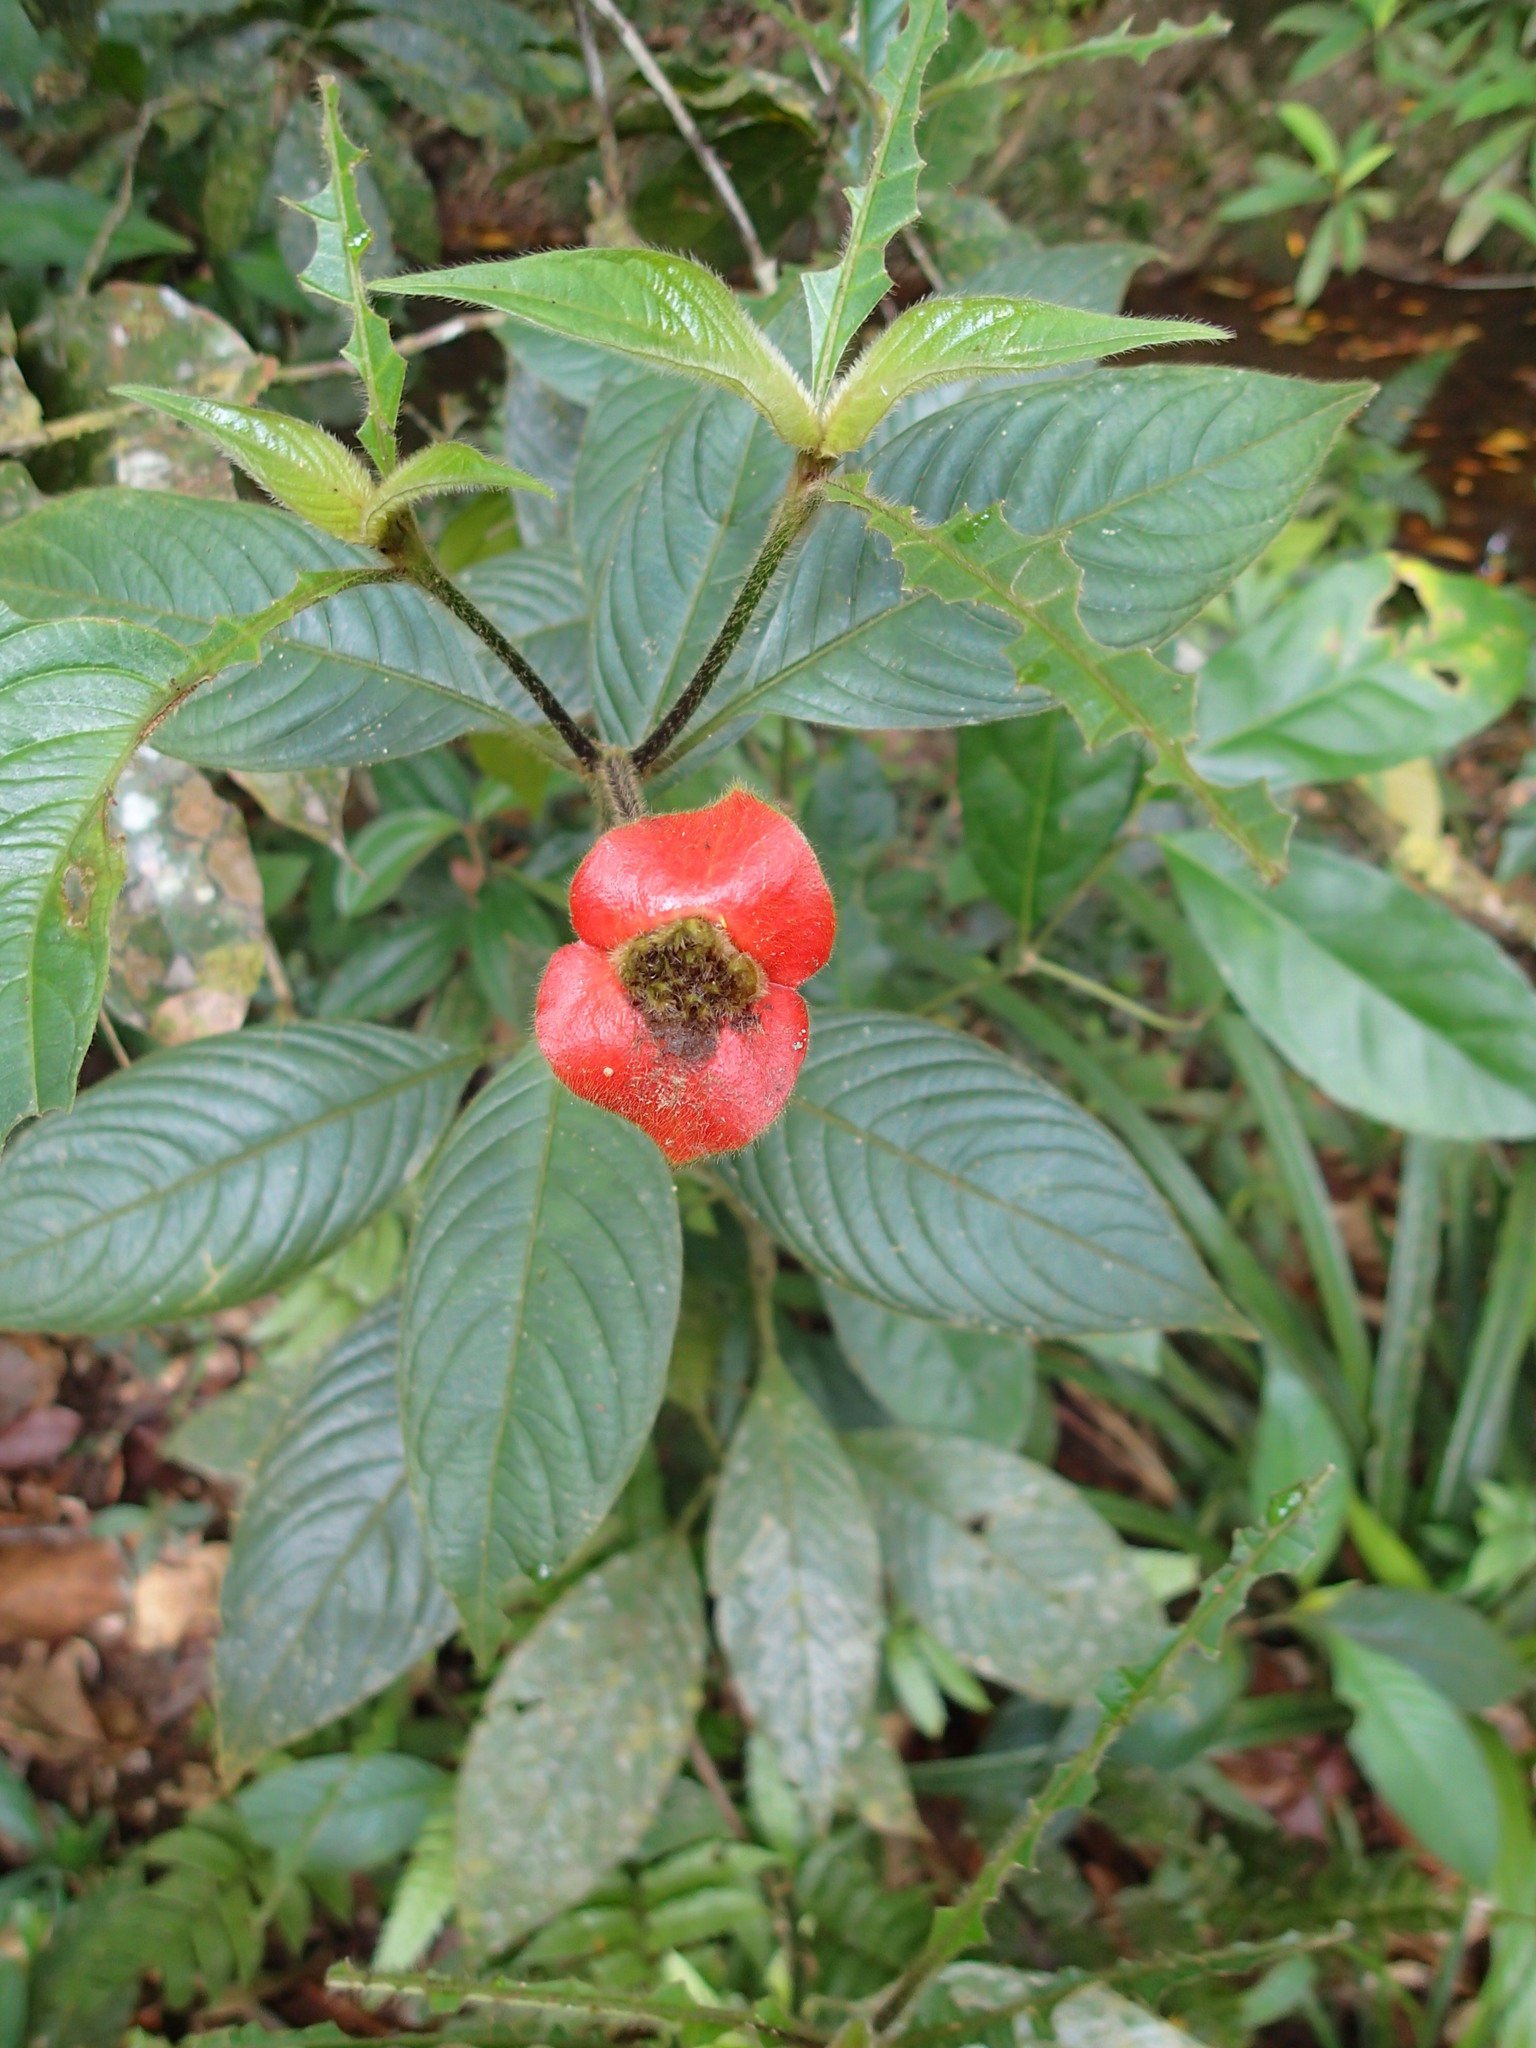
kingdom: Plantae
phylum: Tracheophyta
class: Magnoliopsida
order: Gentianales
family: Rubiaceae
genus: Palicourea
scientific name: Palicourea tomentosa
